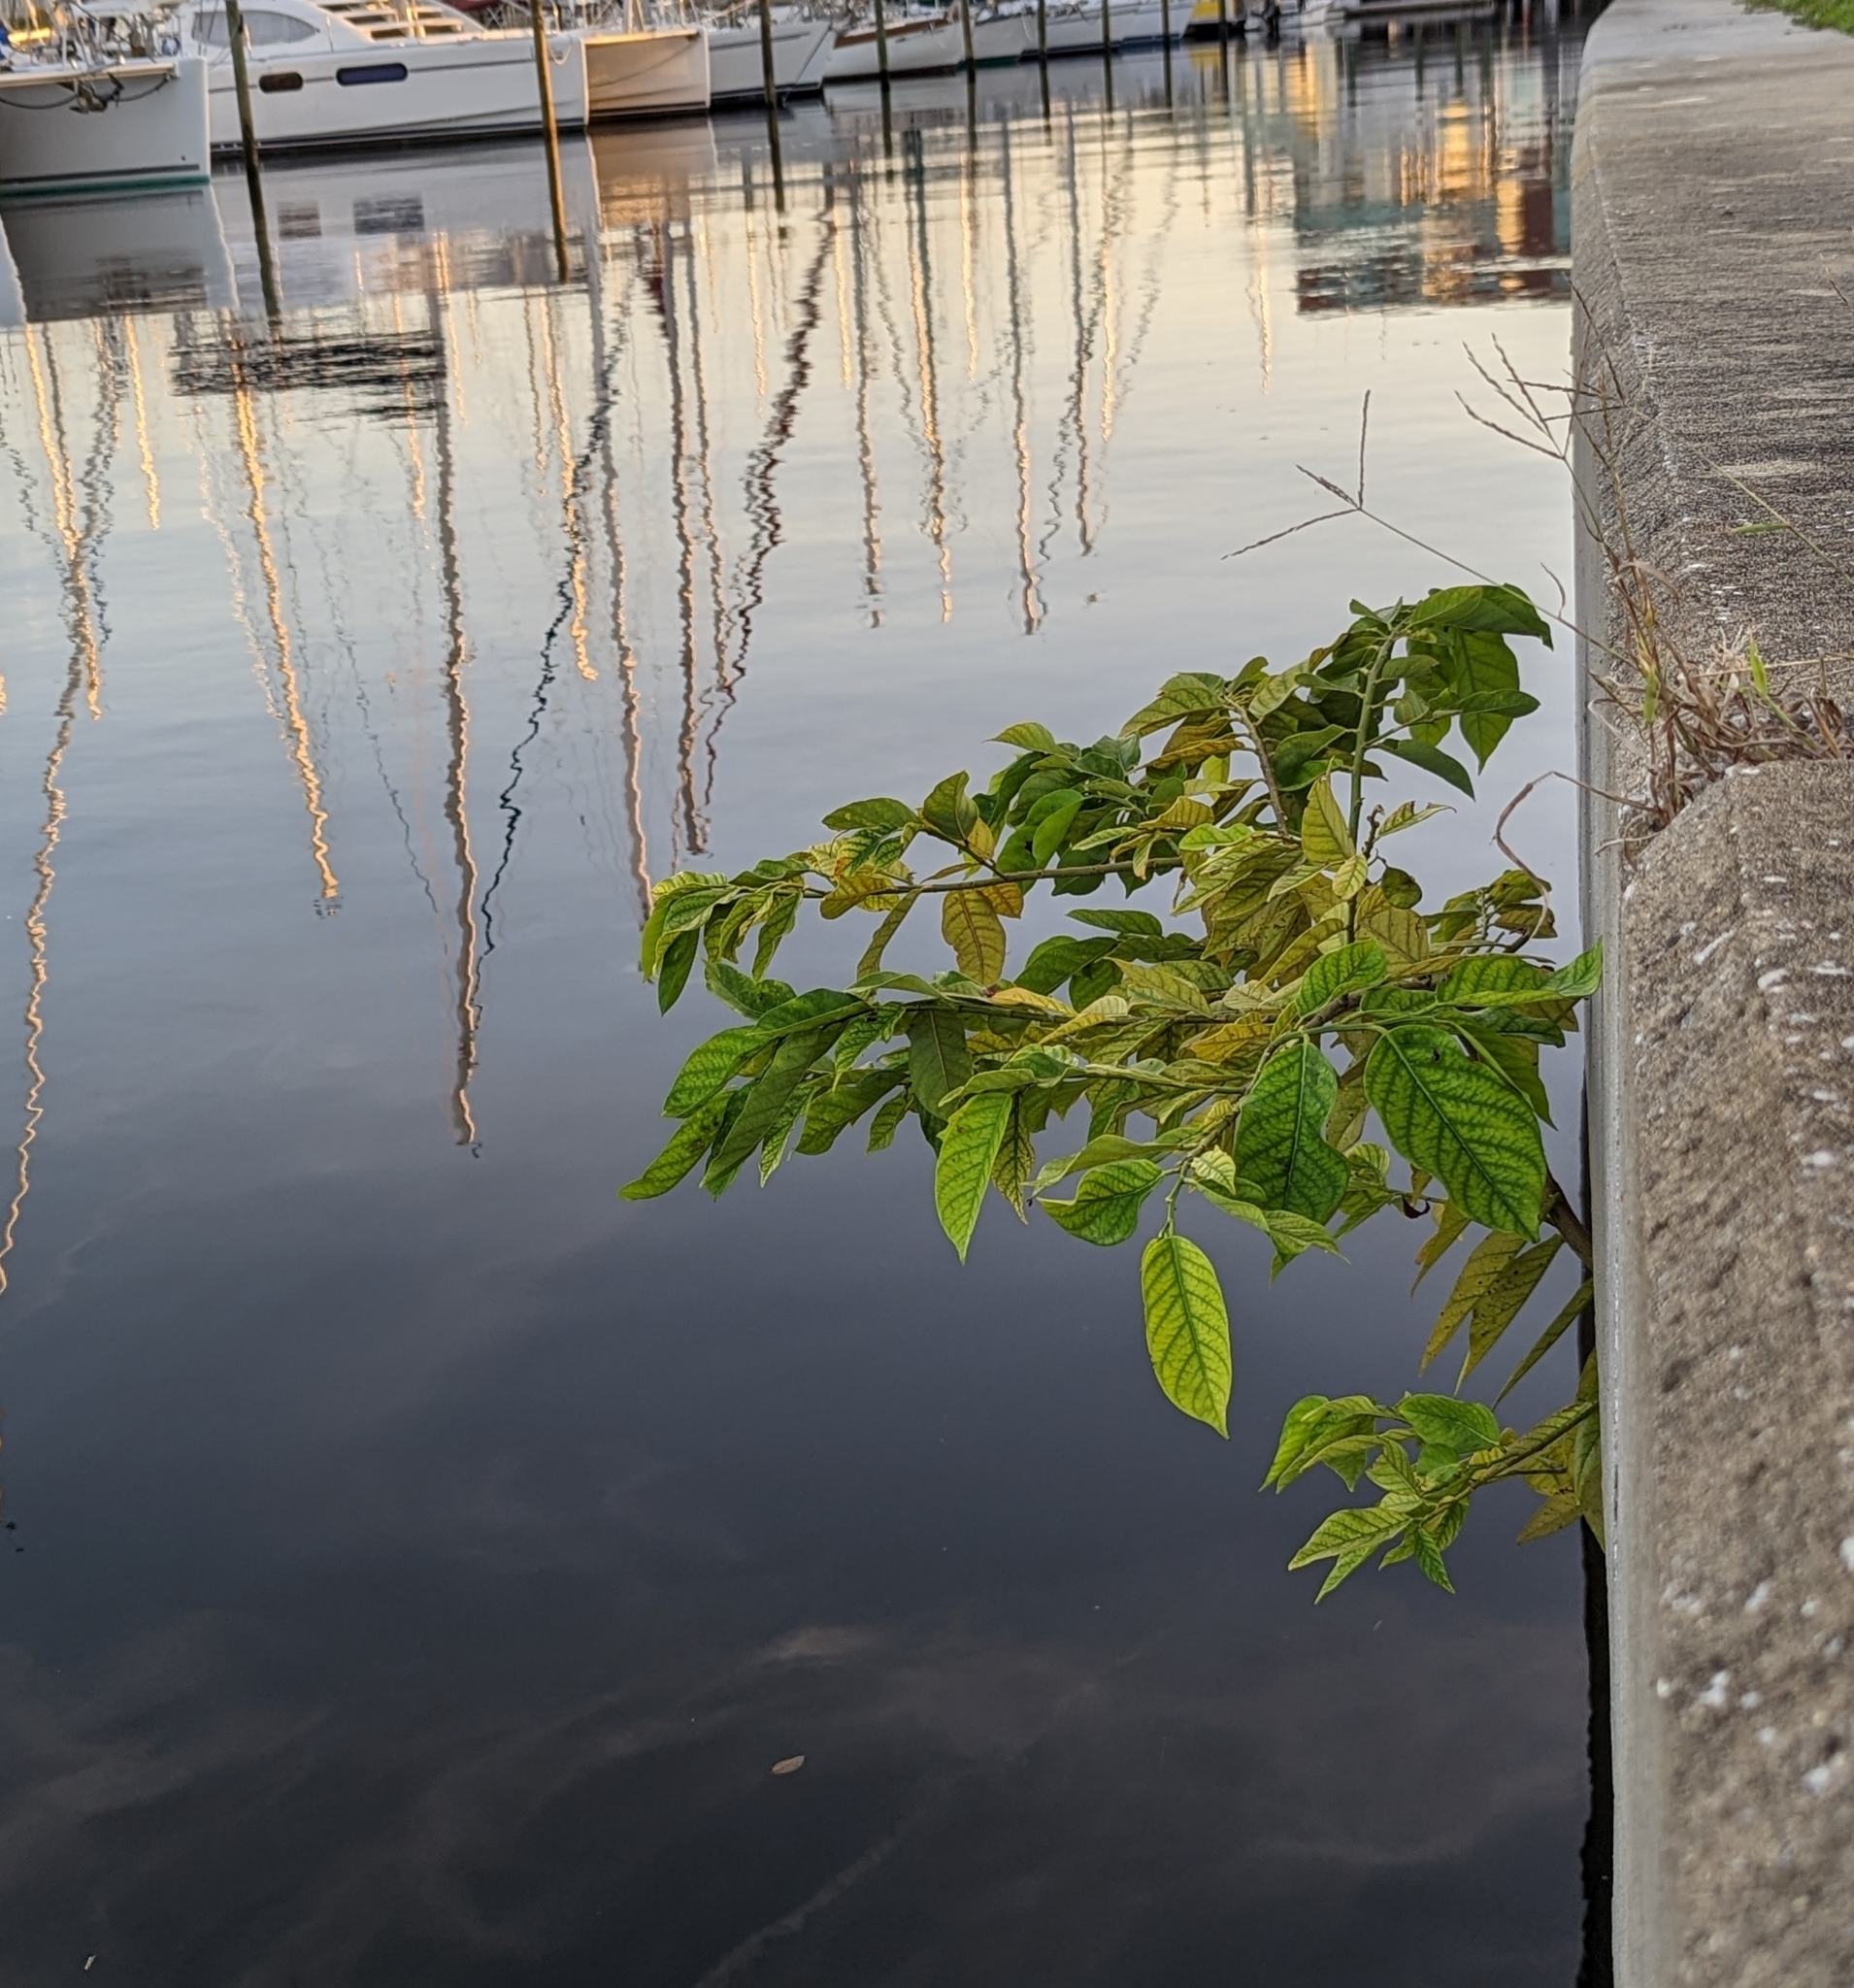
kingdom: Plantae
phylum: Tracheophyta
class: Magnoliopsida
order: Fabales
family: Fabaceae
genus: Dalbergia
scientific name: Dalbergia ecastaphyllum
